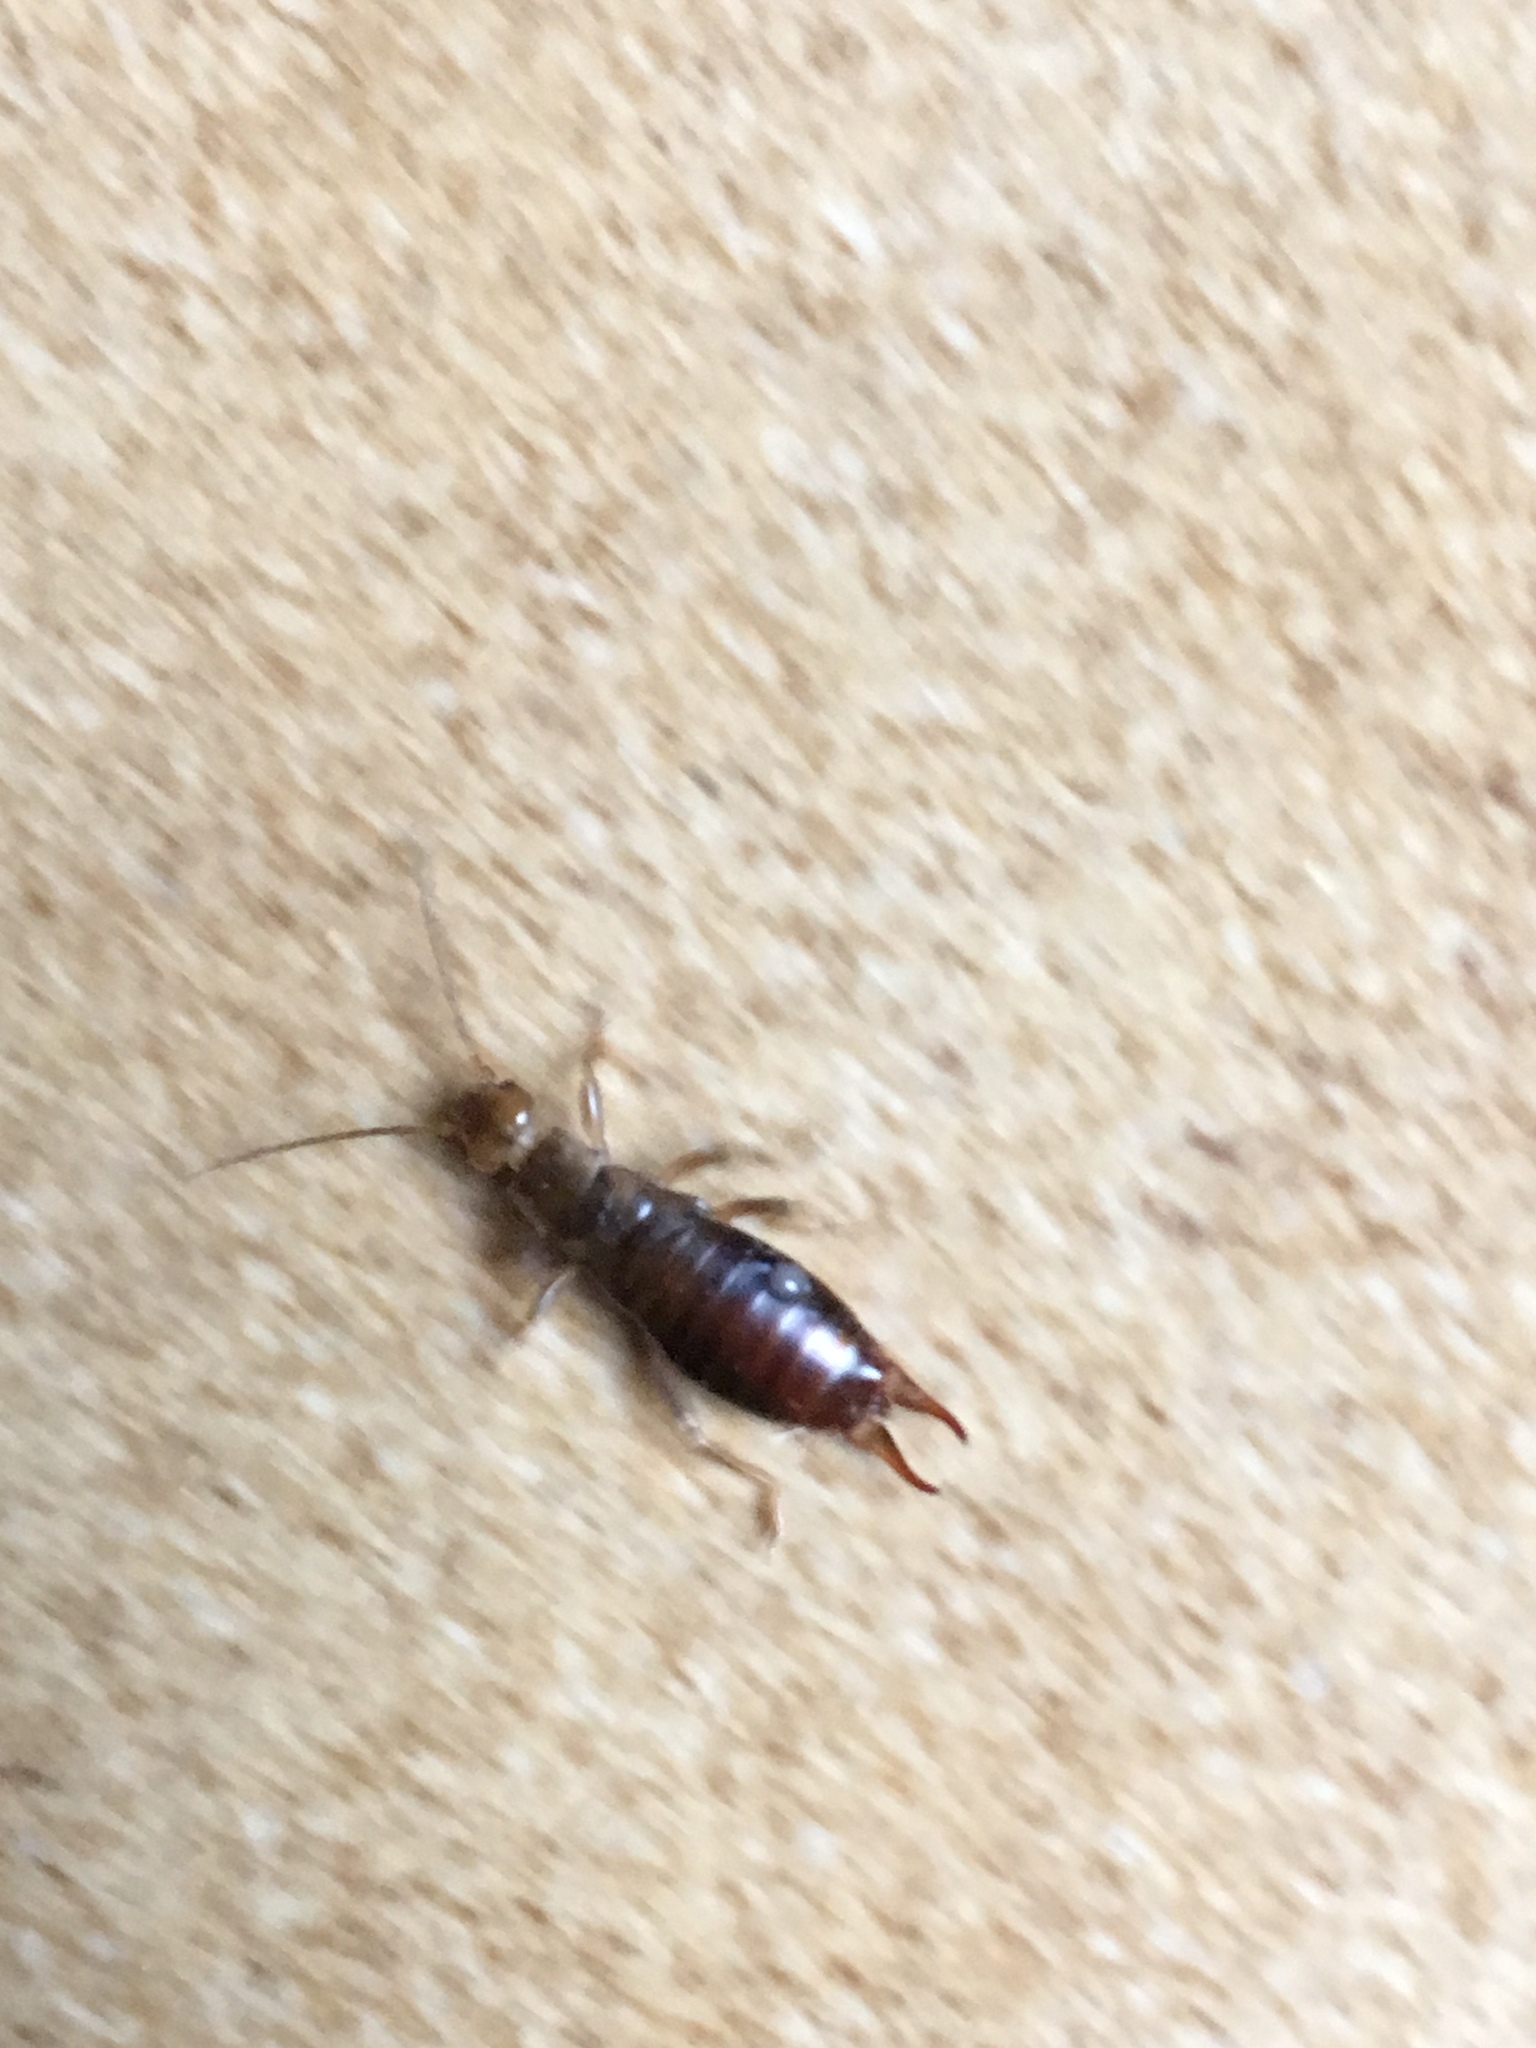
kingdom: Animalia
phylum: Arthropoda
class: Insecta
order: Dermaptera
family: Forficulidae
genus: Forficula
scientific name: Forficula
